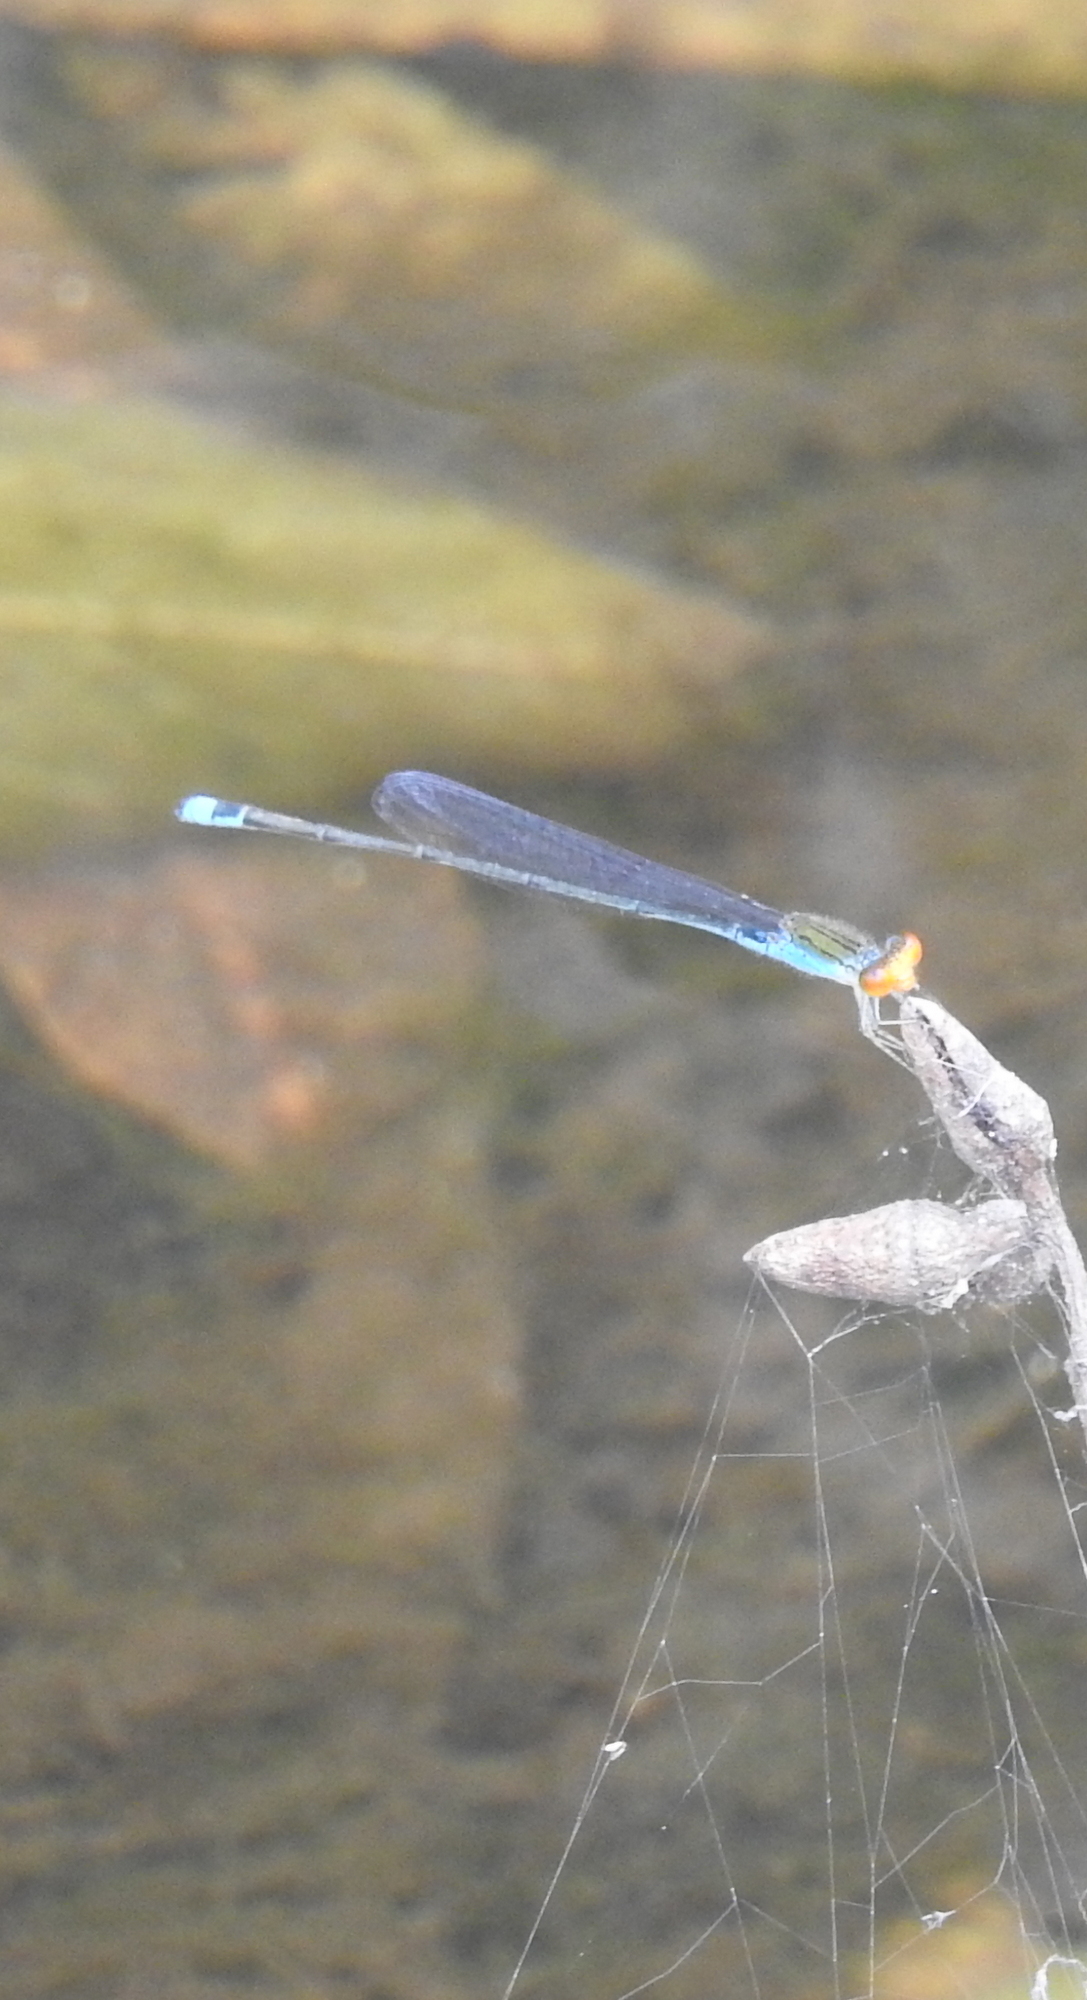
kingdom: Animalia
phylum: Arthropoda
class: Insecta
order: Odonata
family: Coenagrionidae
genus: Pseudagrion
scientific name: Pseudagrion rubriceps
